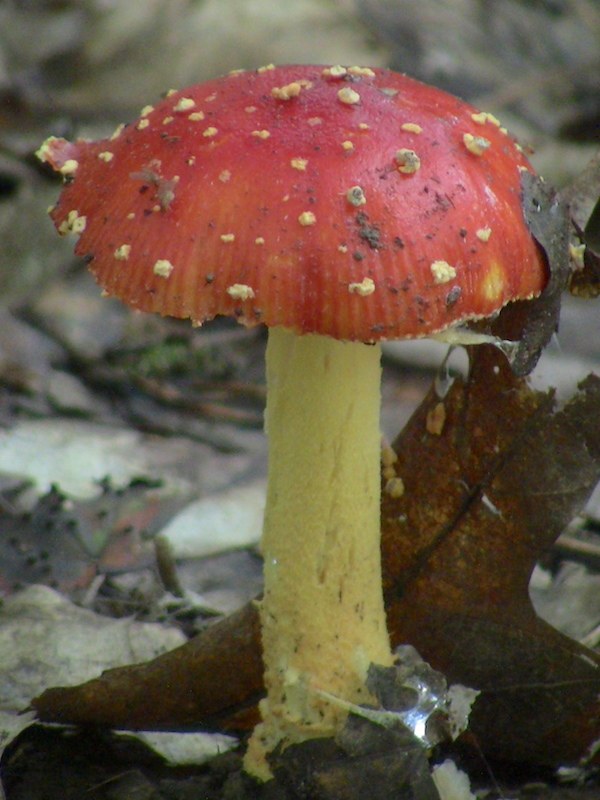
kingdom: Fungi
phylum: Basidiomycota
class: Agaricomycetes
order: Agaricales
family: Amanitaceae
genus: Amanita
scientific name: Amanita parcivolvata
